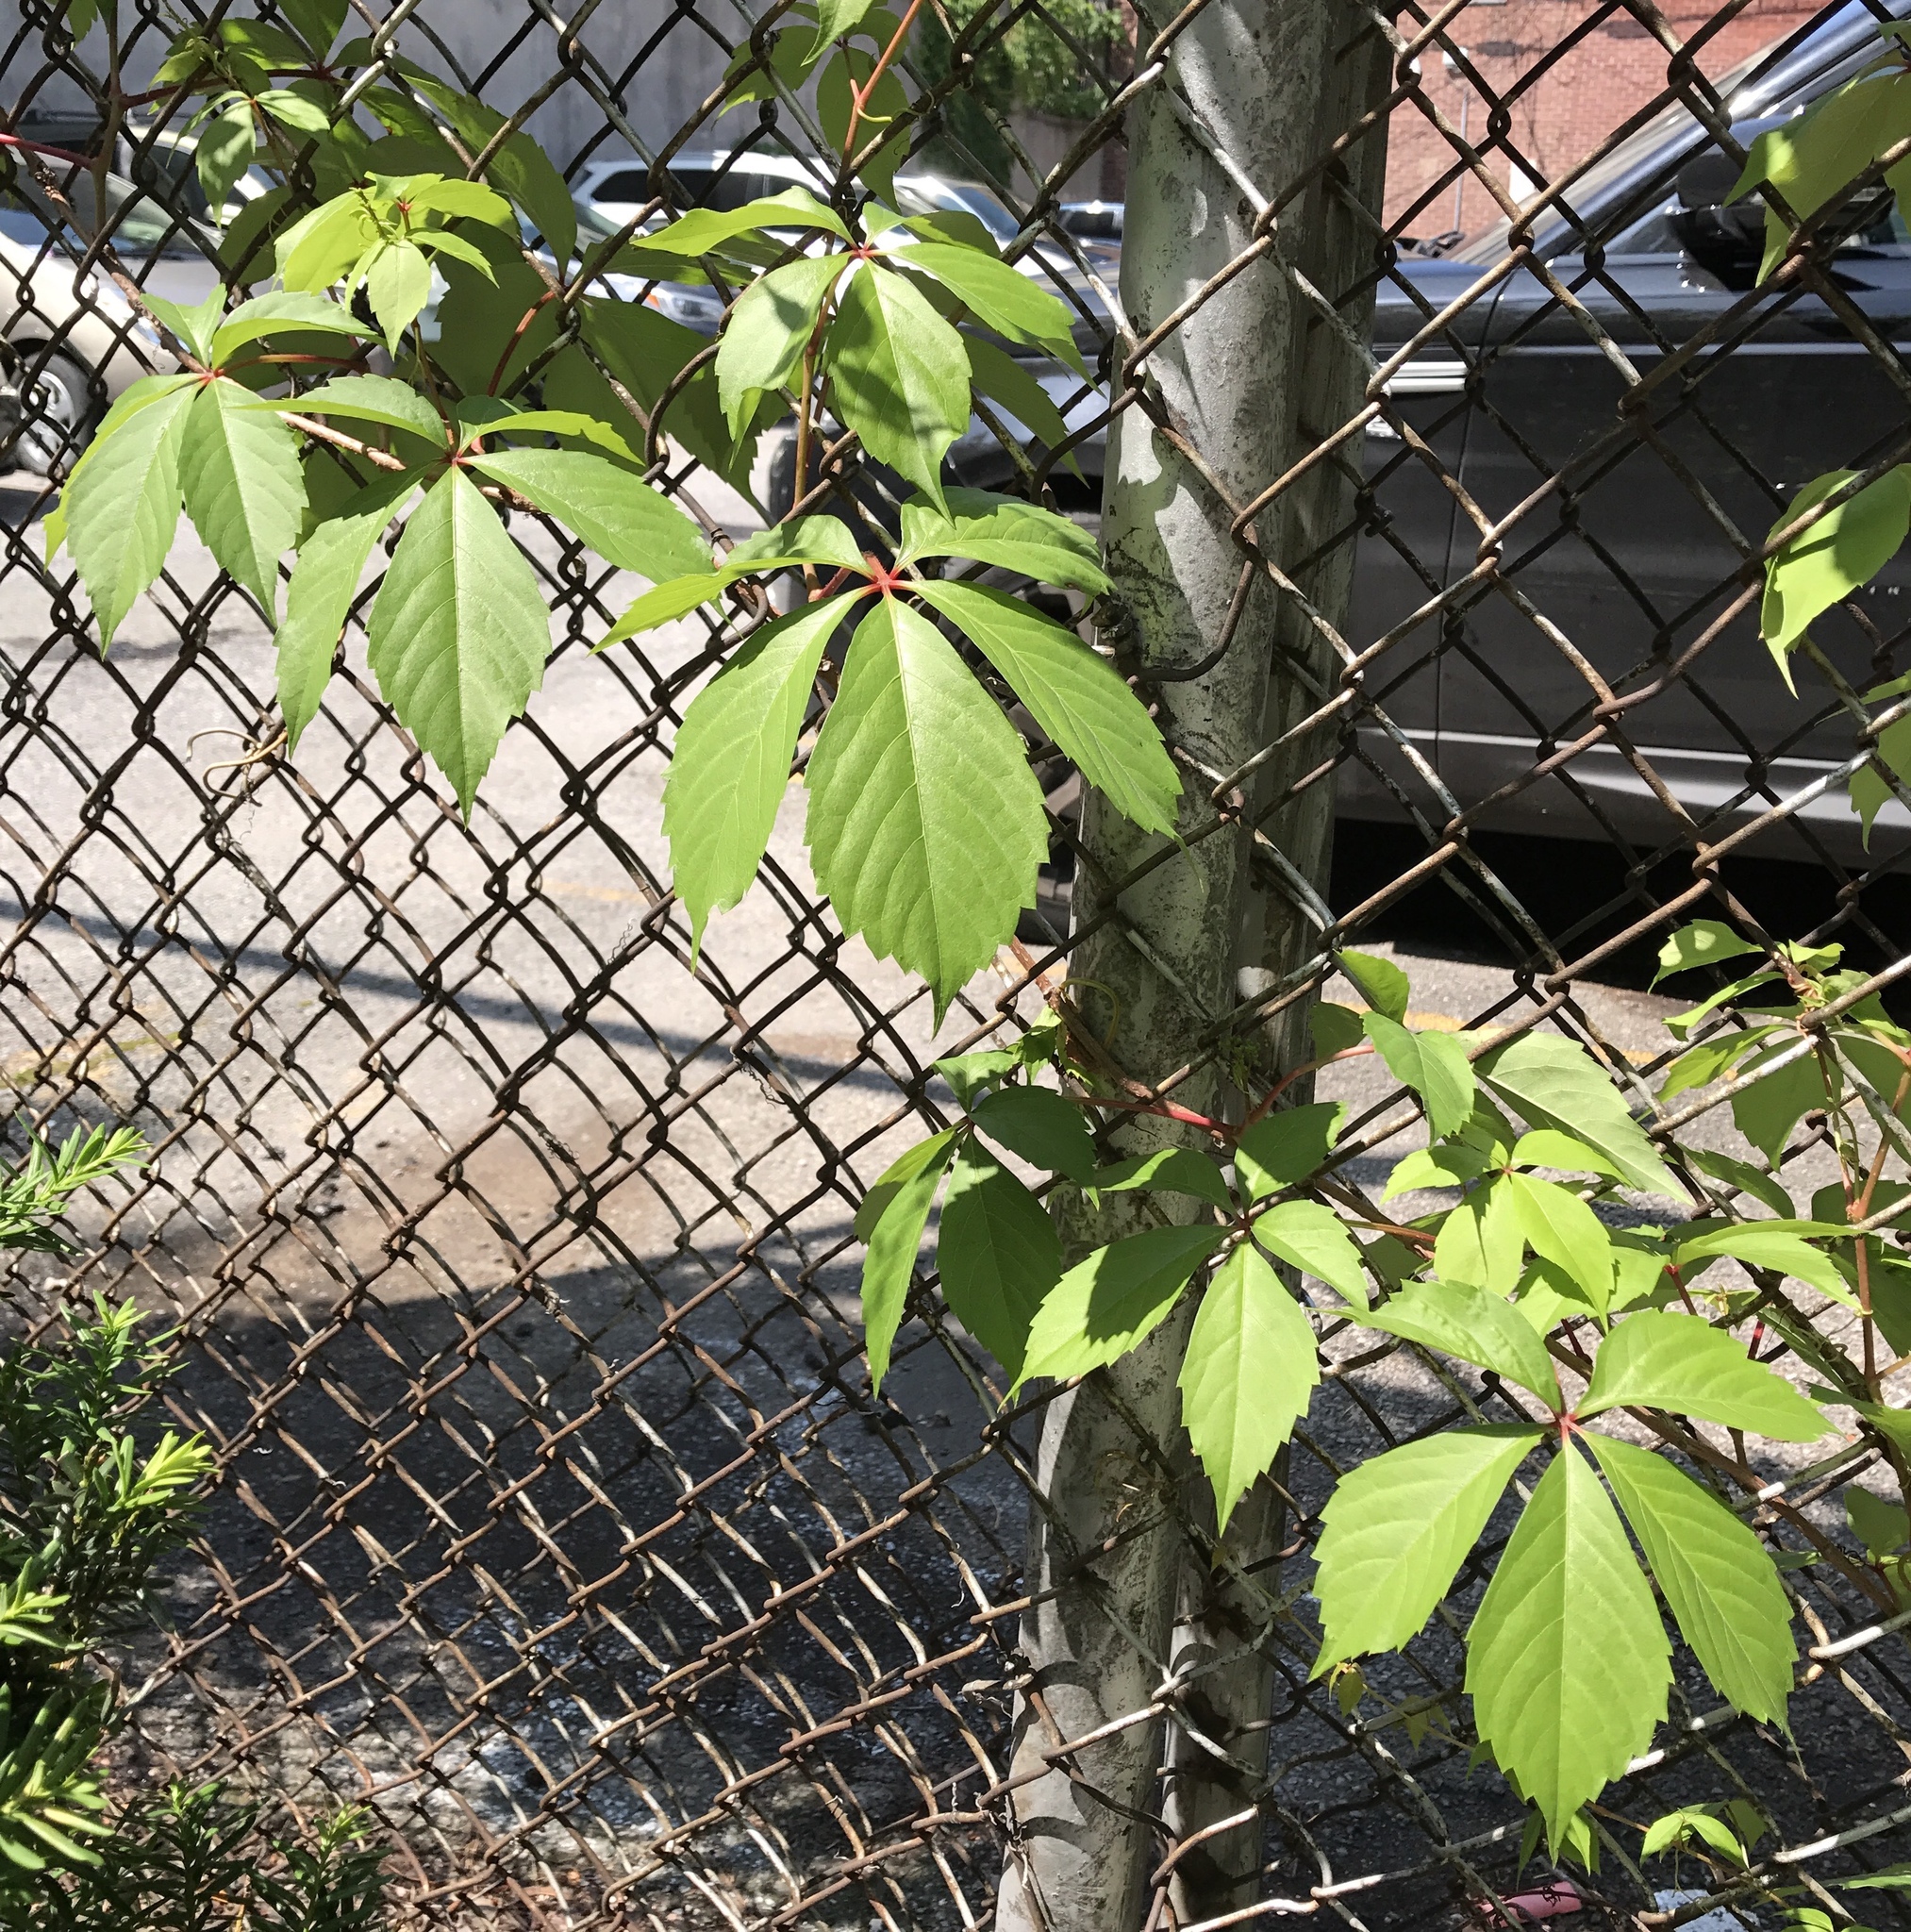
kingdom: Plantae
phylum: Tracheophyta
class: Magnoliopsida
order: Vitales
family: Vitaceae
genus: Parthenocissus
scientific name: Parthenocissus quinquefolia
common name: Virginia-creeper
